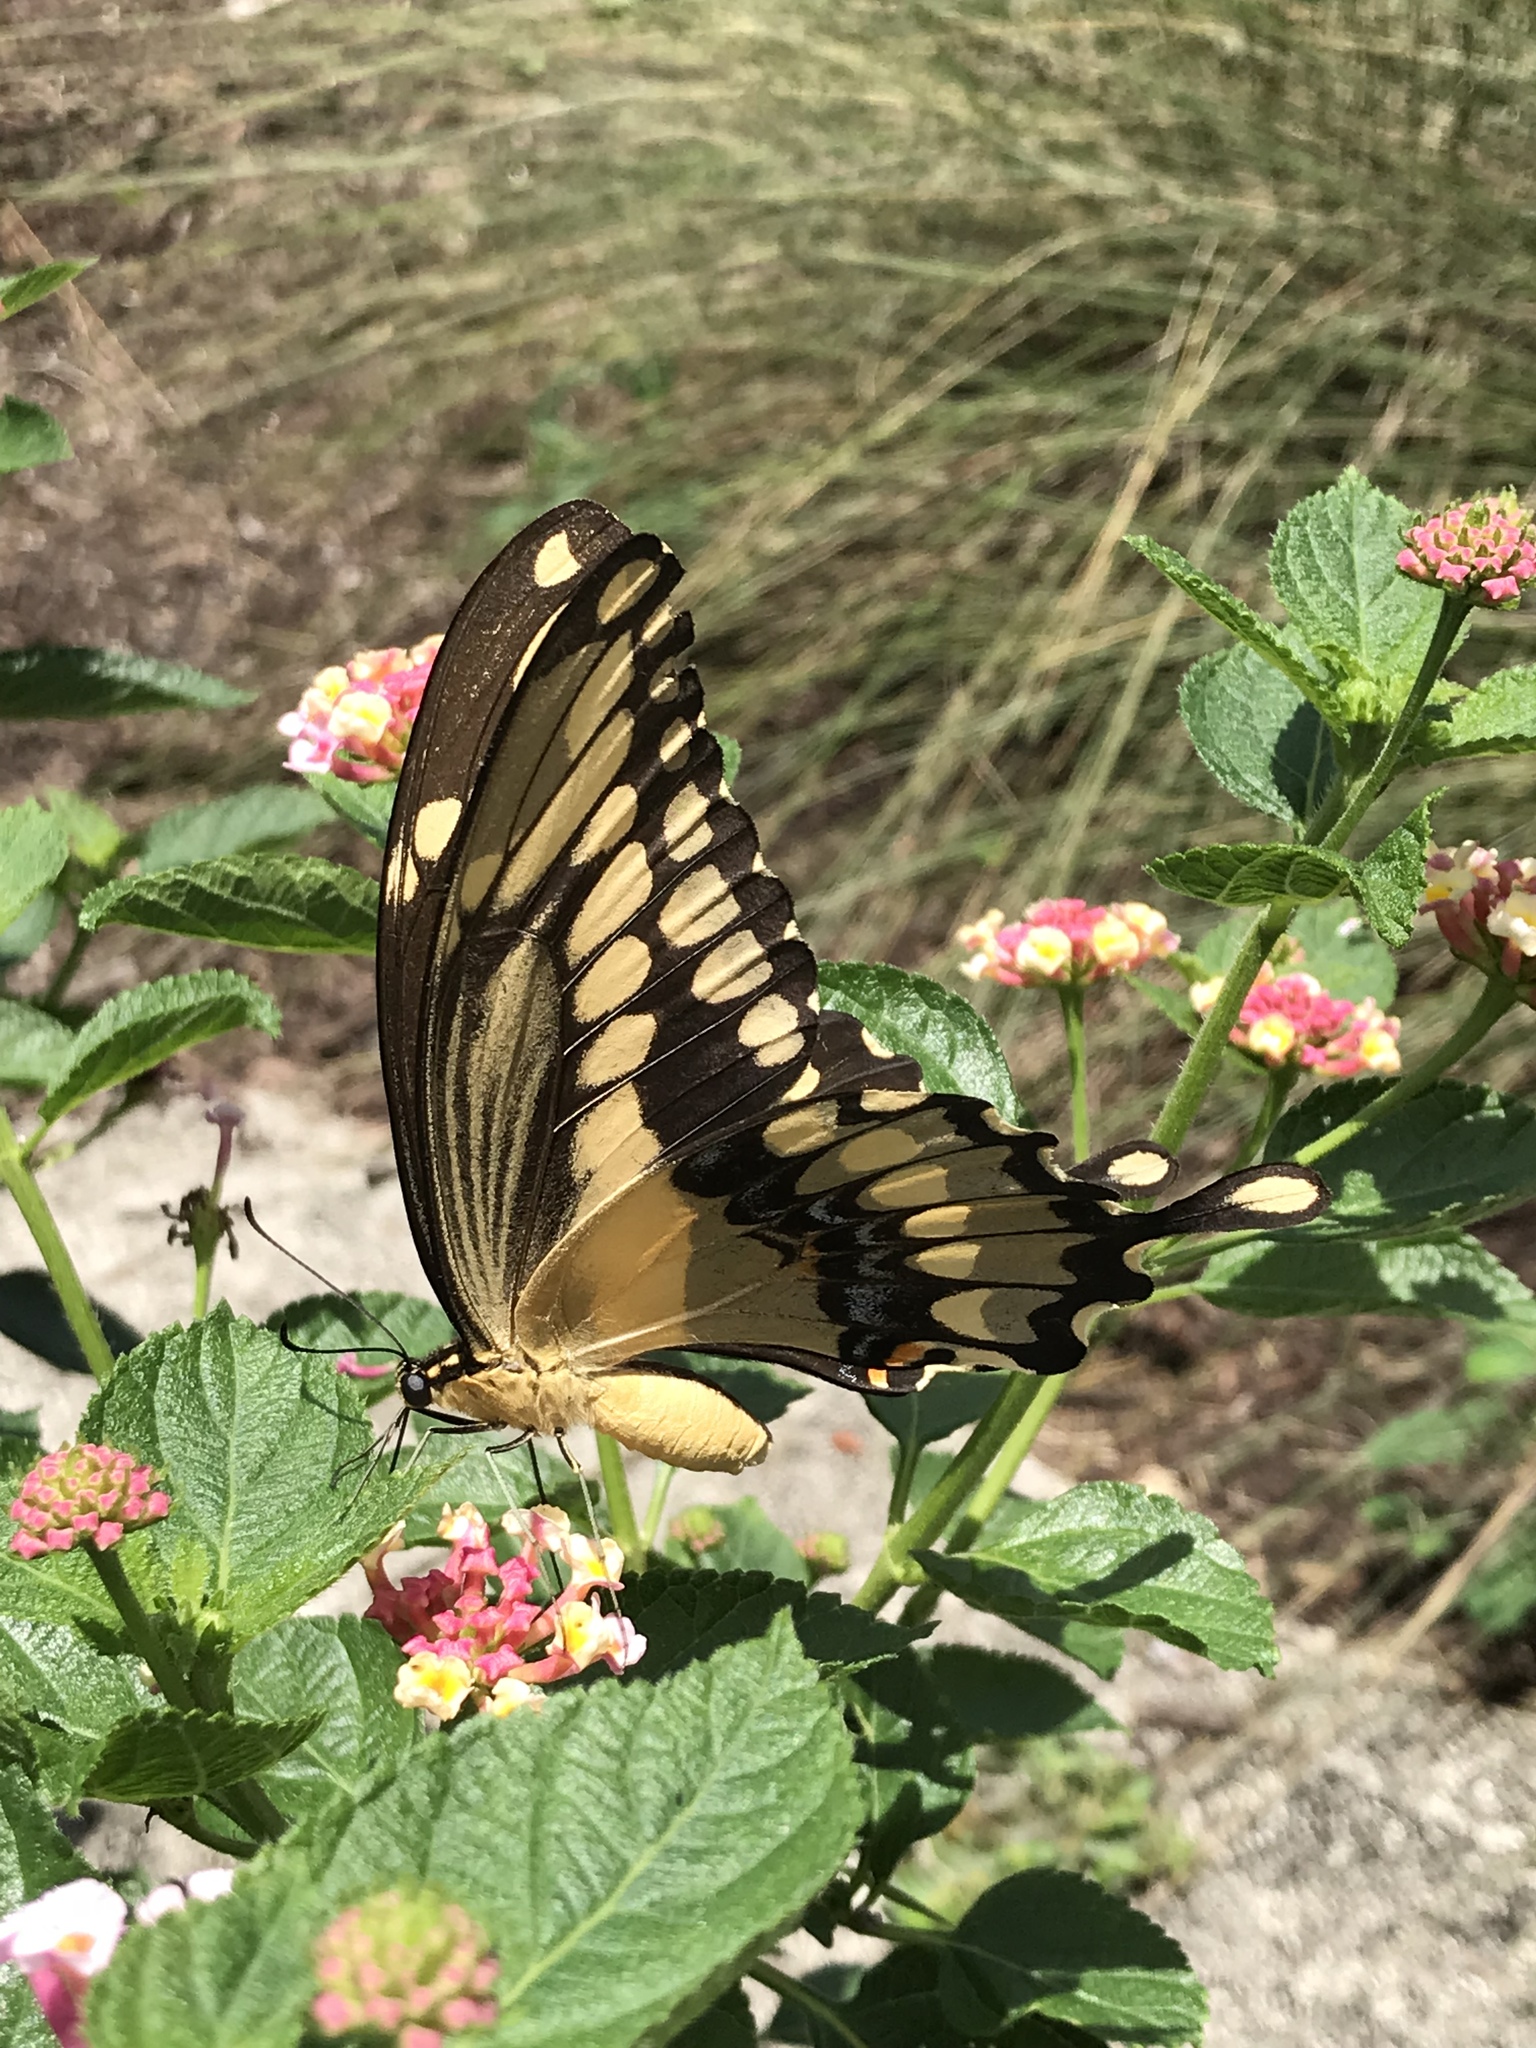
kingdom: Animalia
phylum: Arthropoda
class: Insecta
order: Lepidoptera
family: Papilionidae
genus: Papilio
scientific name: Papilio cresphontes
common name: Giant swallowtail
